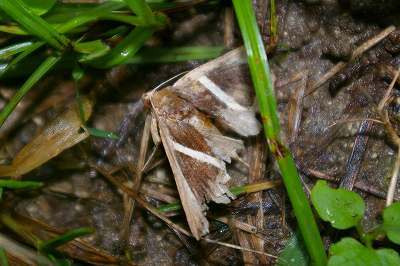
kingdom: Animalia
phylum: Arthropoda
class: Insecta
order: Lepidoptera
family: Erebidae
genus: Chalciope
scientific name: Chalciope mygdon
